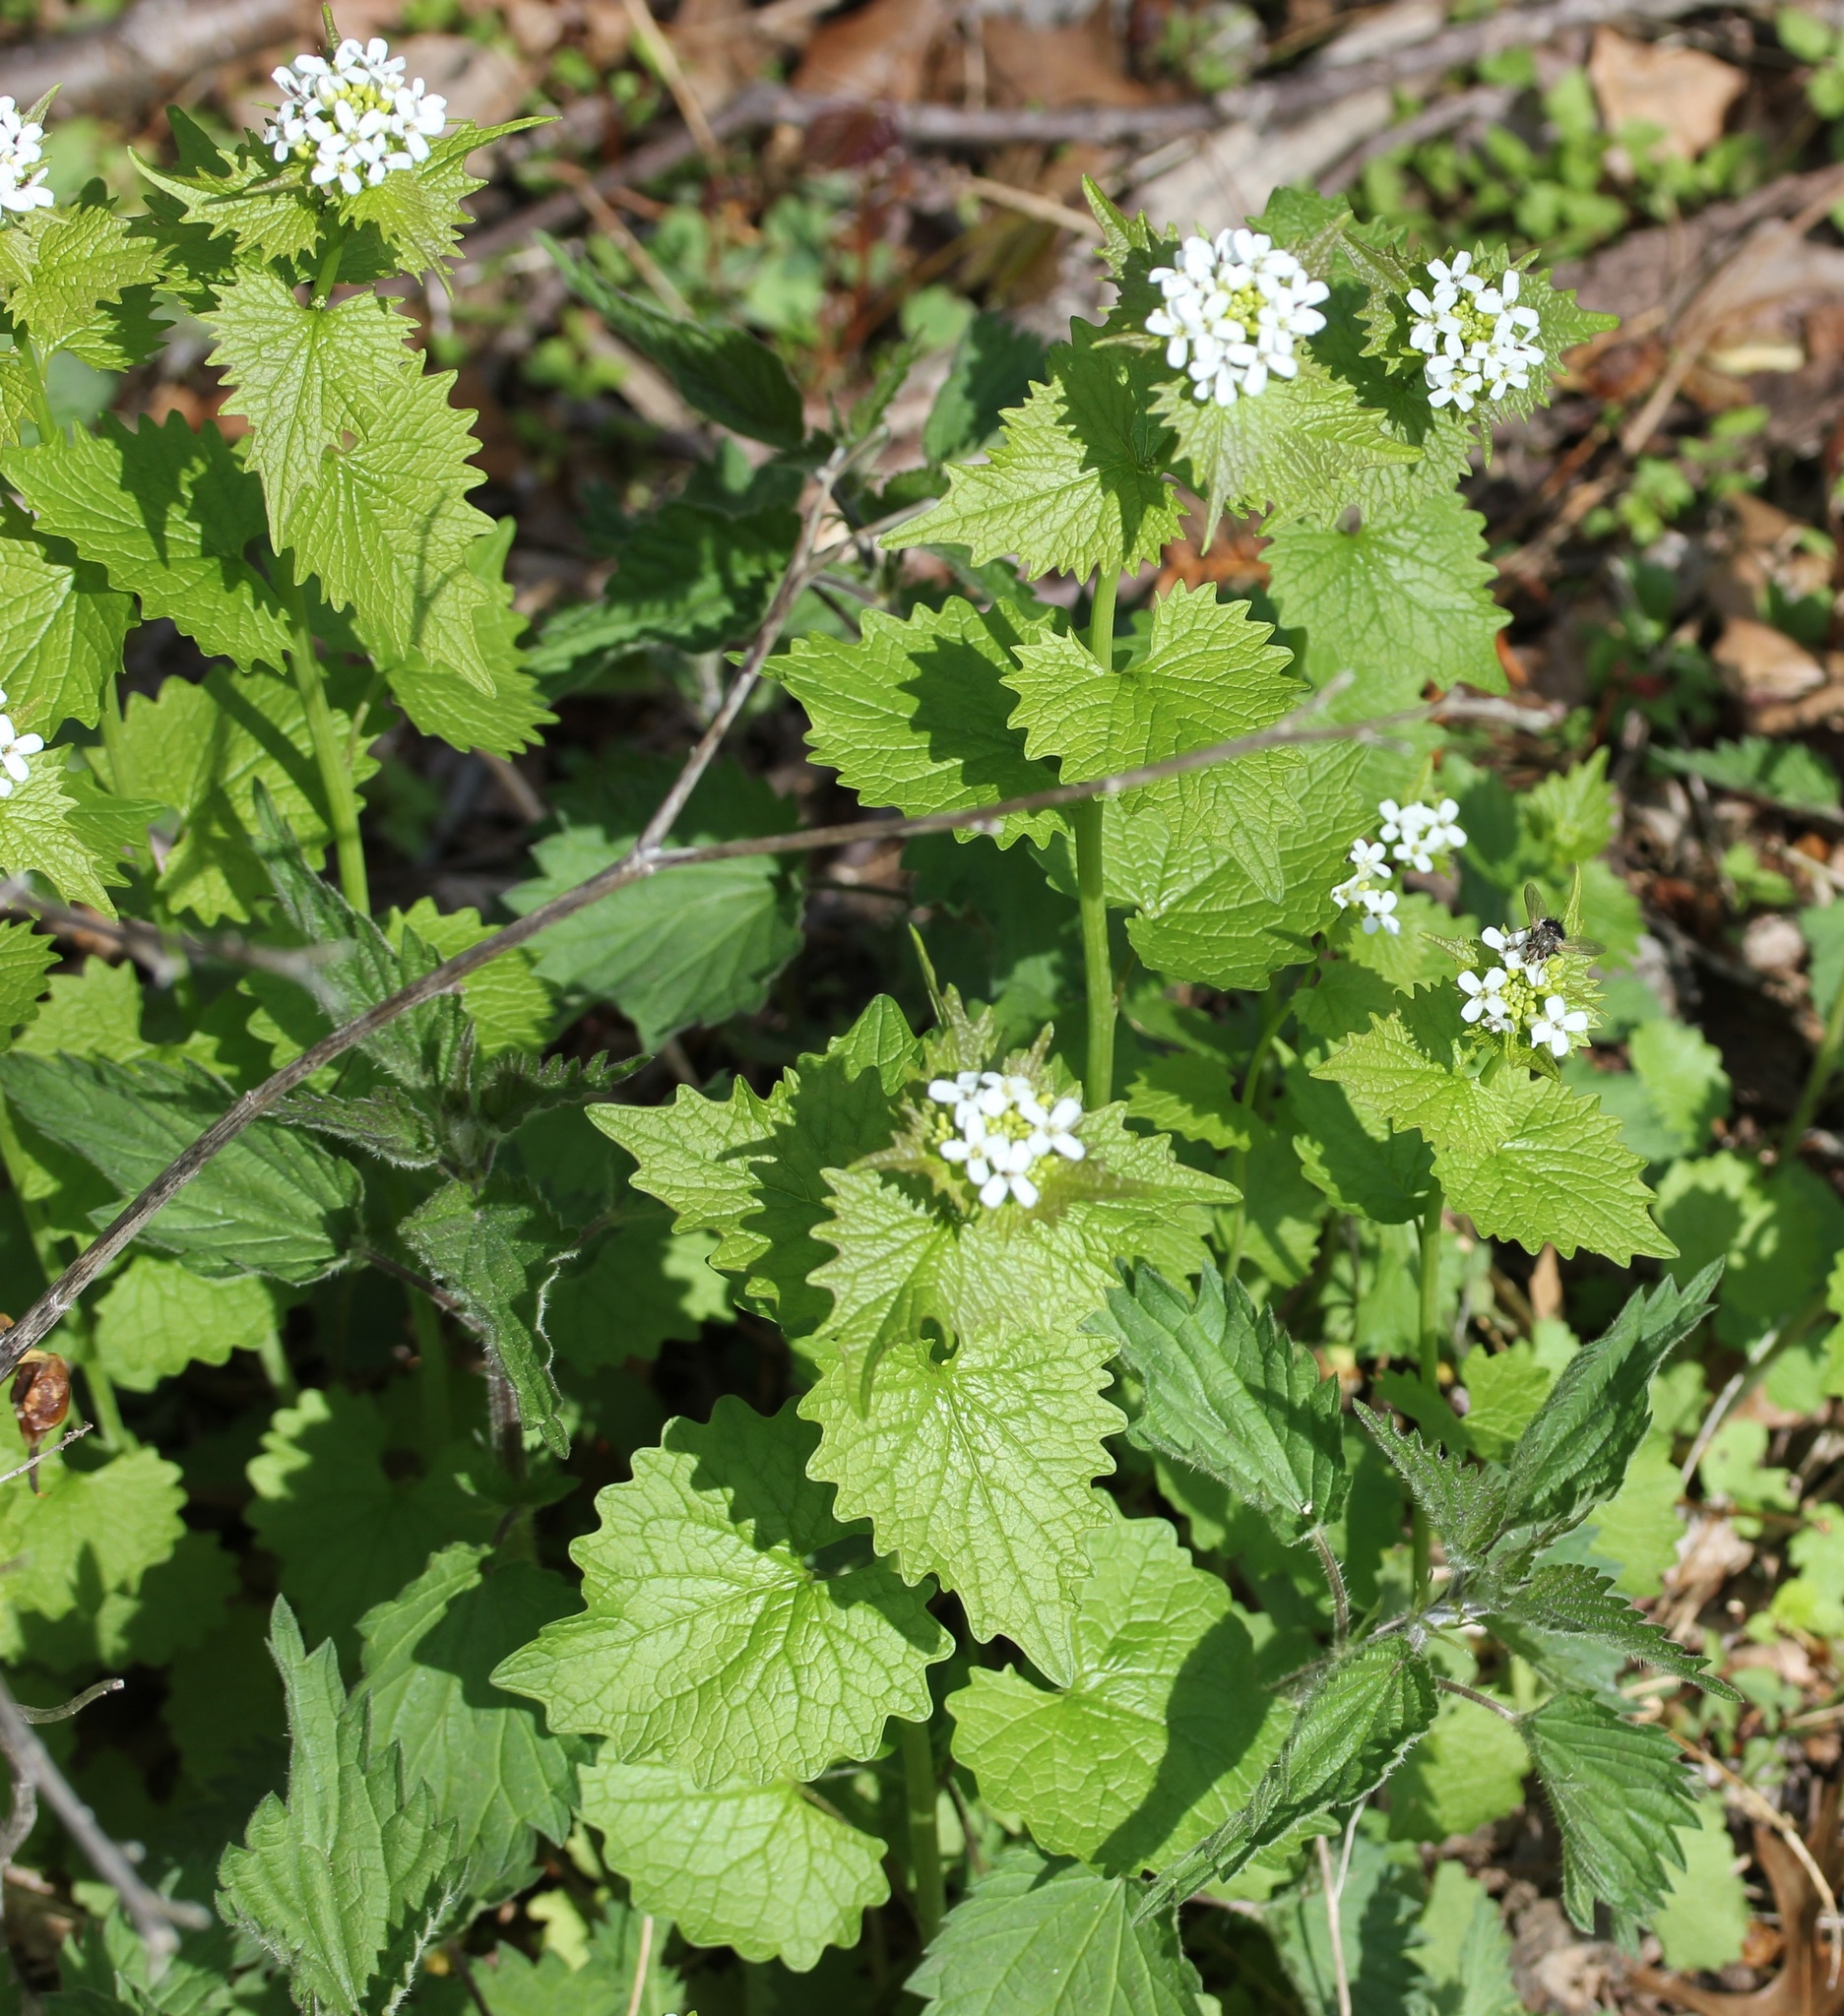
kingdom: Plantae
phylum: Tracheophyta
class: Magnoliopsida
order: Brassicales
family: Brassicaceae
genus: Alliaria
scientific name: Alliaria petiolata
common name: Garlic mustard
